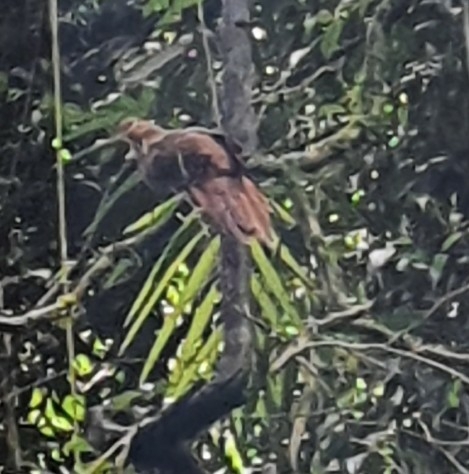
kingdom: Animalia
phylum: Chordata
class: Aves
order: Columbiformes
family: Columbidae
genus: Macropygia
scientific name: Macropygia phasianella
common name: Brown cuckoo-dove
